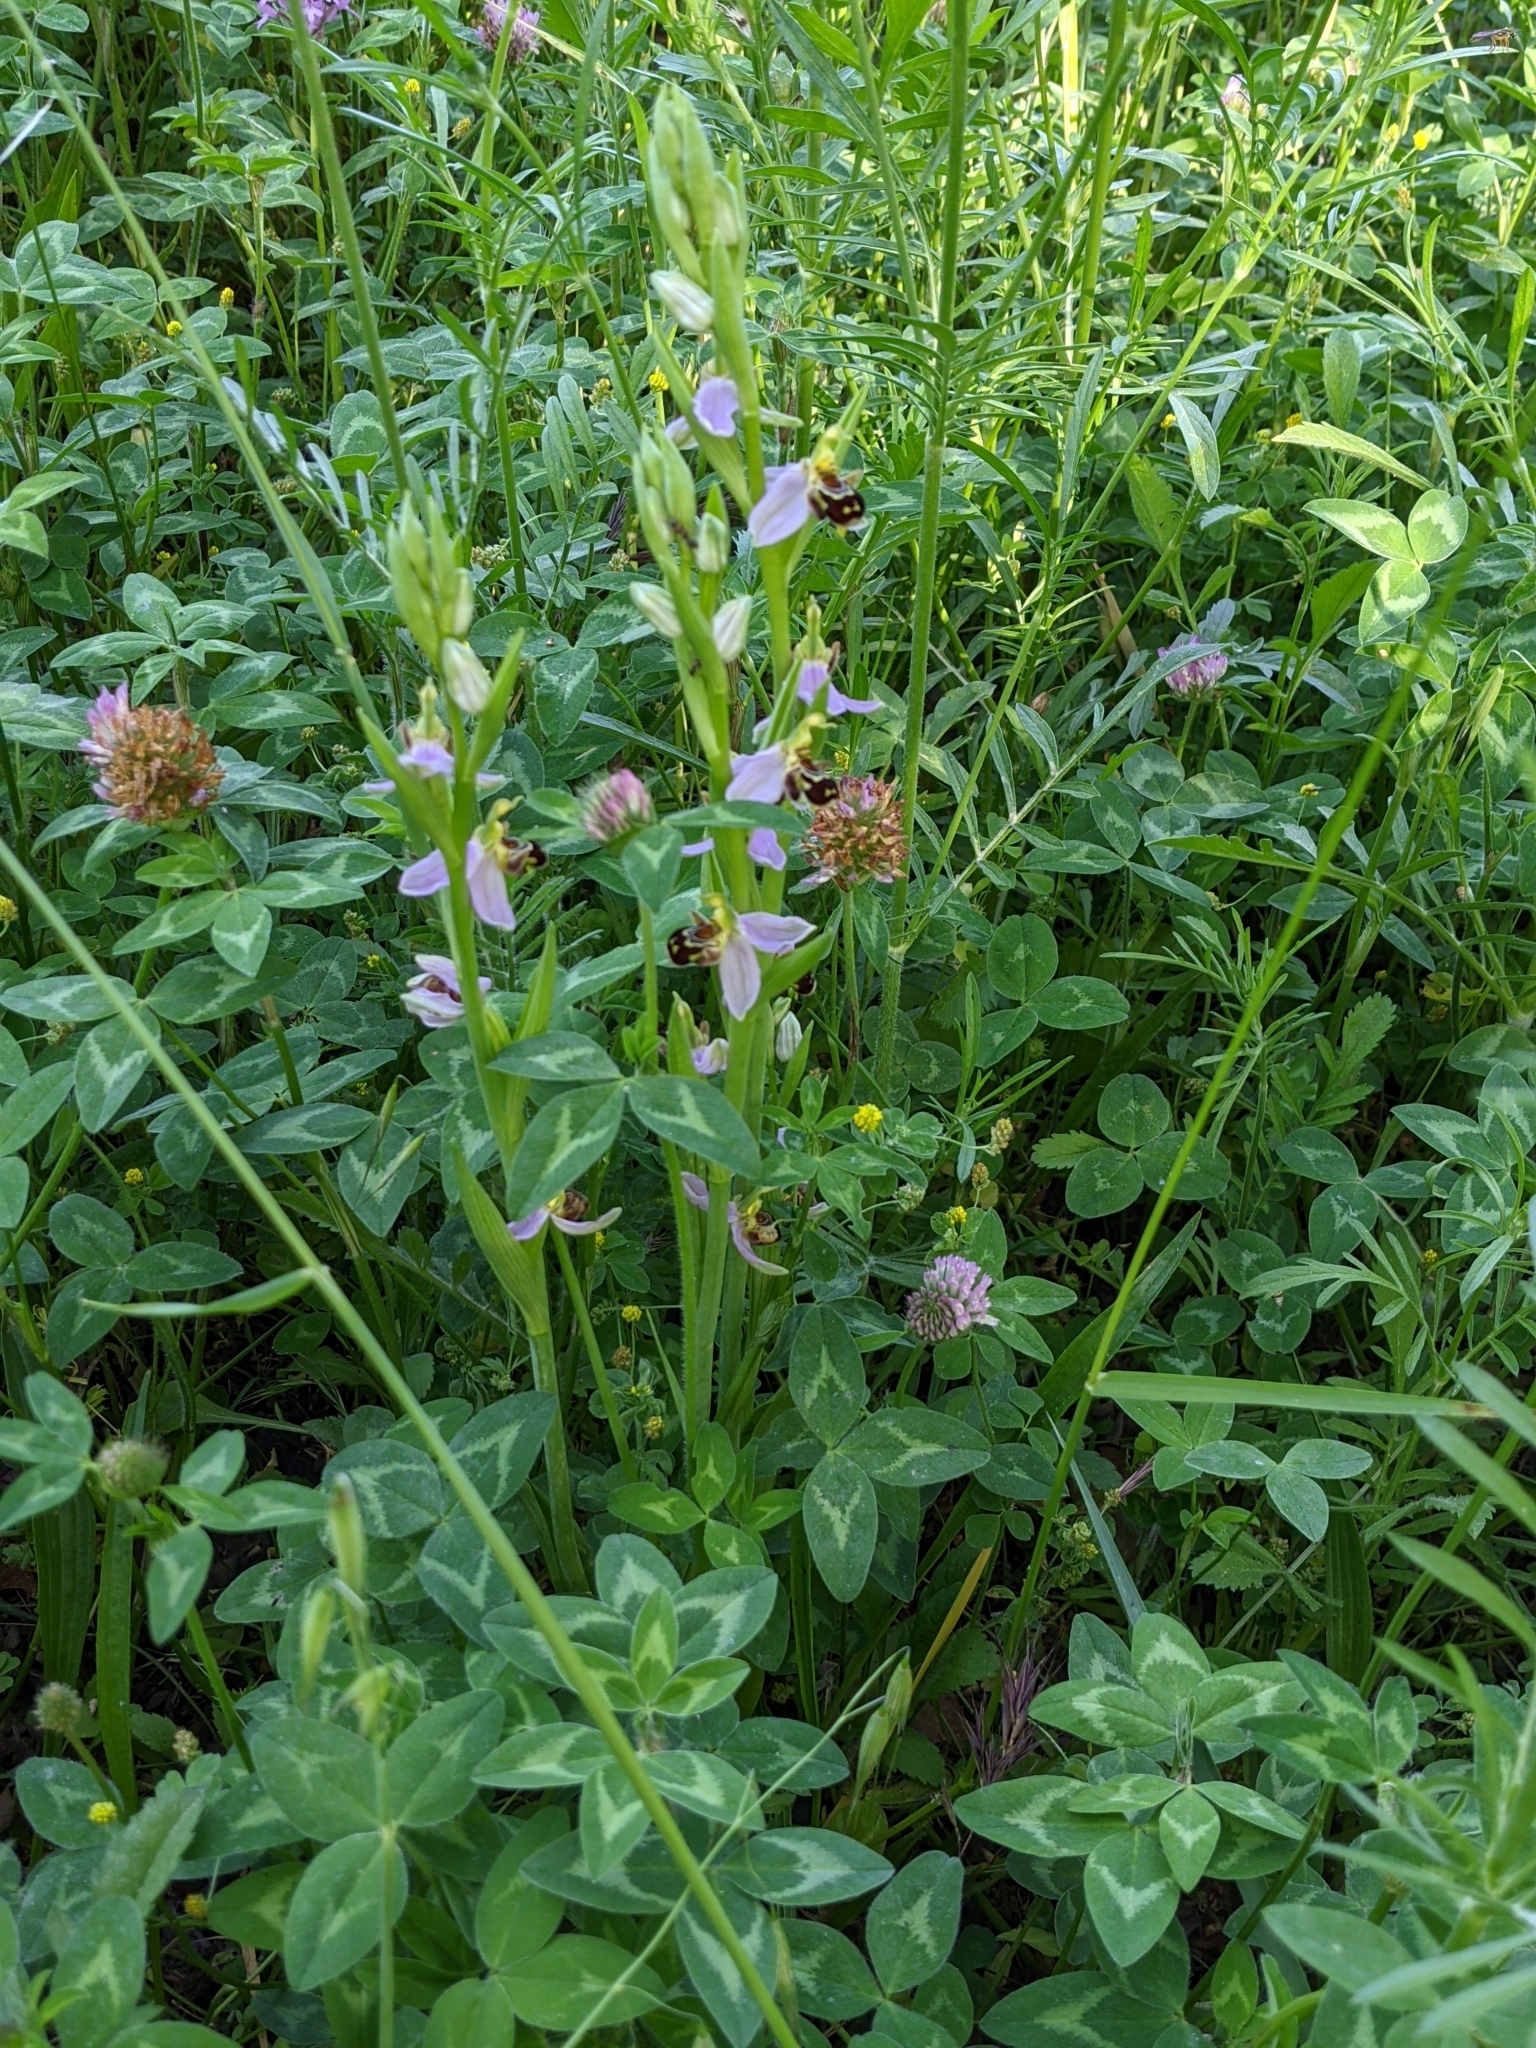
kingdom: Plantae
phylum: Tracheophyta
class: Liliopsida
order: Asparagales
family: Orchidaceae
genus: Ophrys
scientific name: Ophrys apifera
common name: Bee orchid
